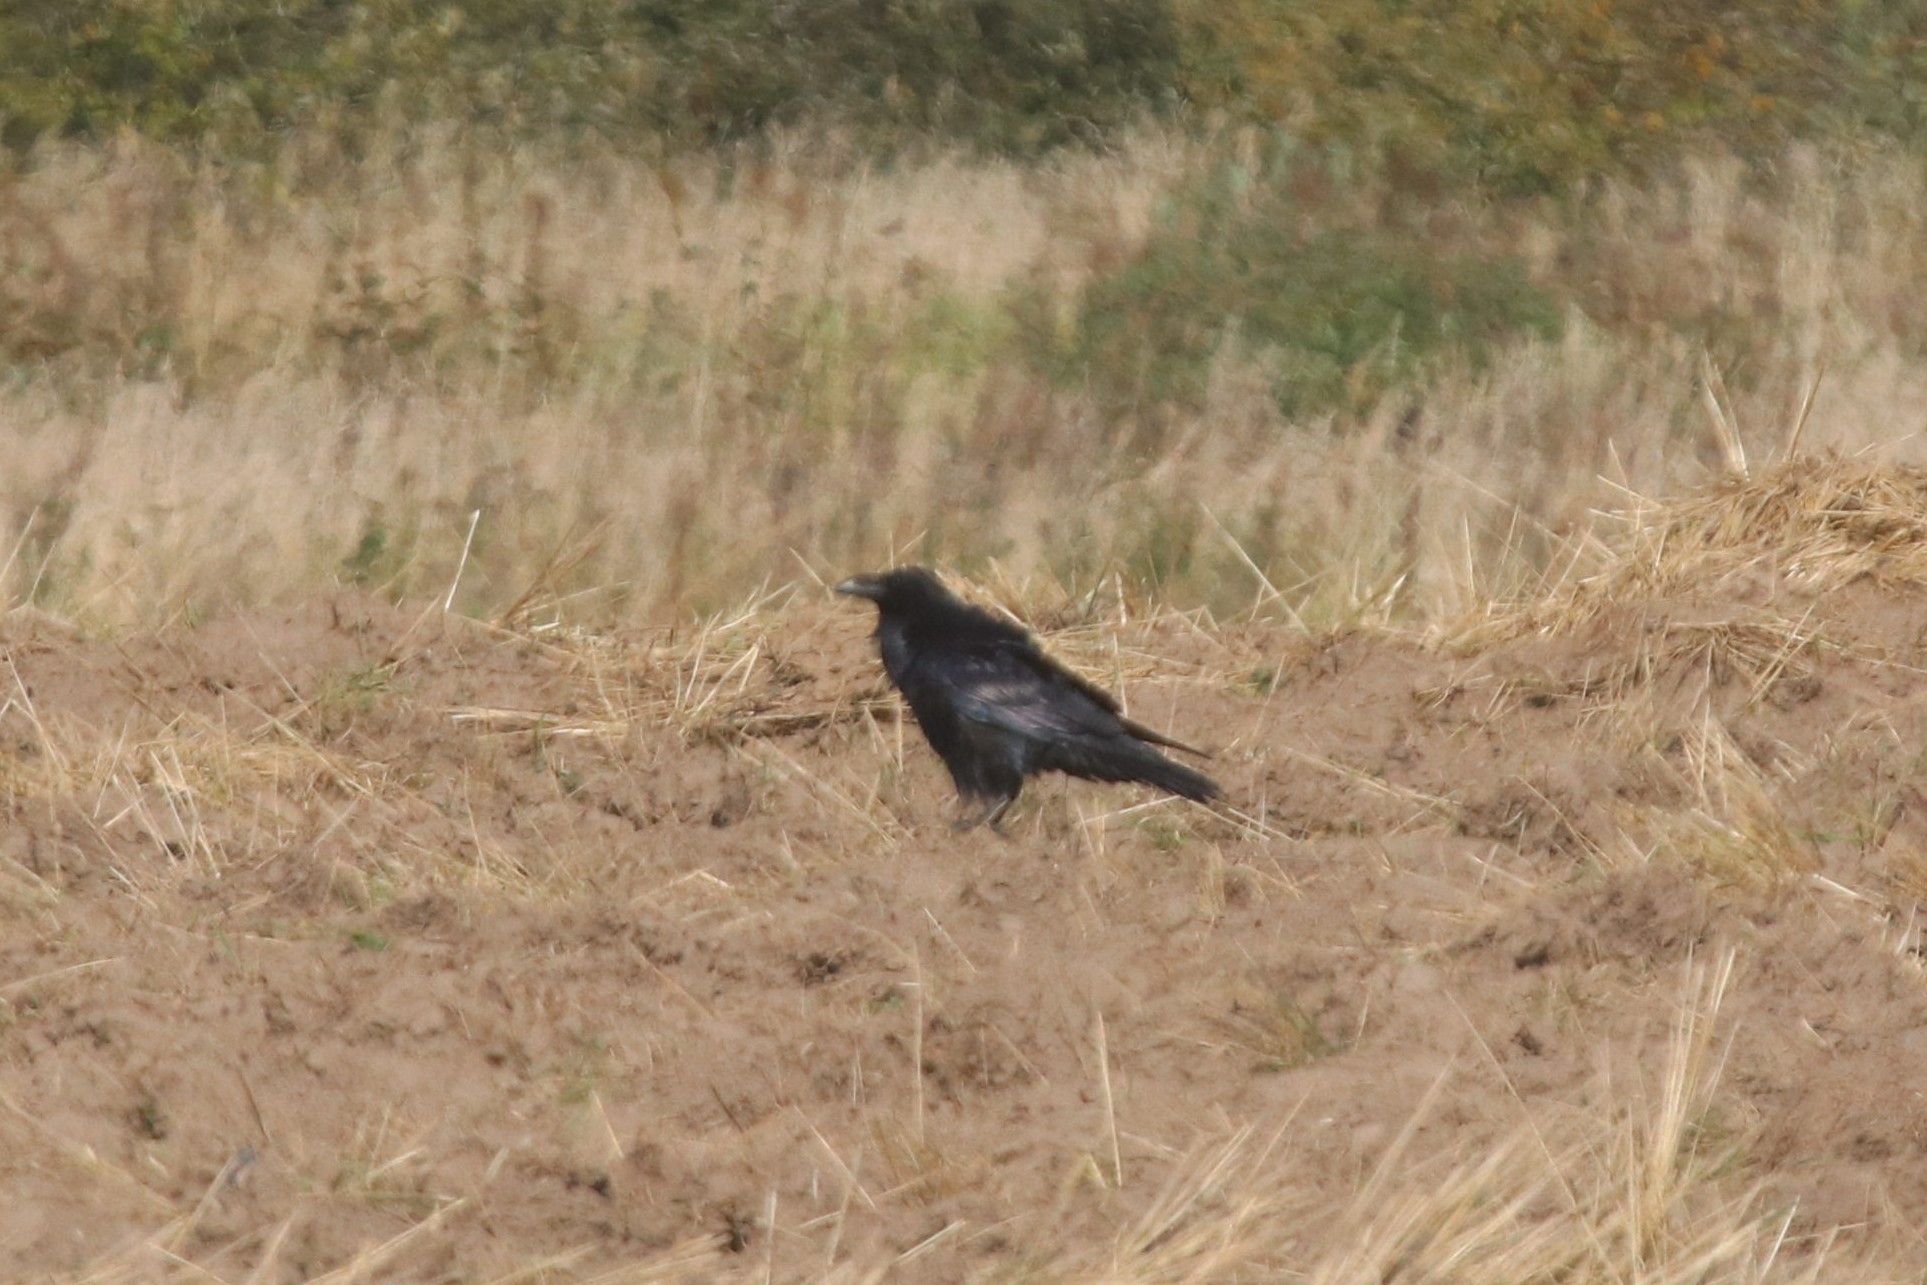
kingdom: Animalia
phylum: Chordata
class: Aves
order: Passeriformes
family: Corvidae
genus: Corvus
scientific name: Corvus corax
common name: Common raven
